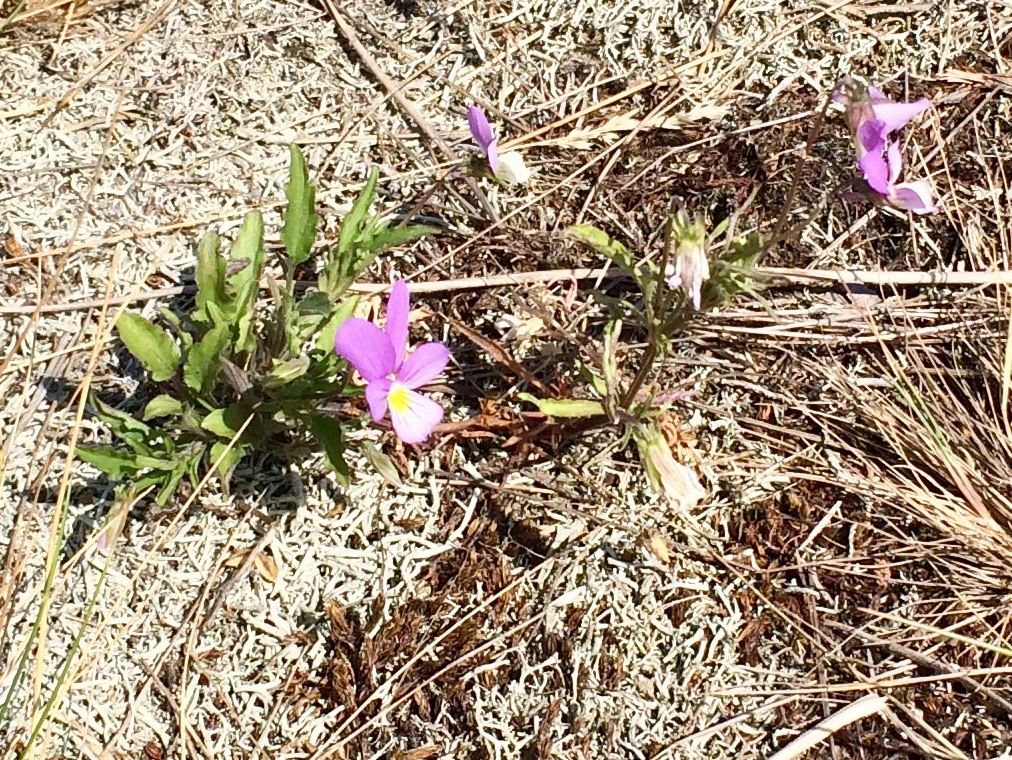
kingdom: Plantae
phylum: Tracheophyta
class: Magnoliopsida
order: Malpighiales
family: Violaceae
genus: Viola
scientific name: Viola tricolor
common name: Pansy
